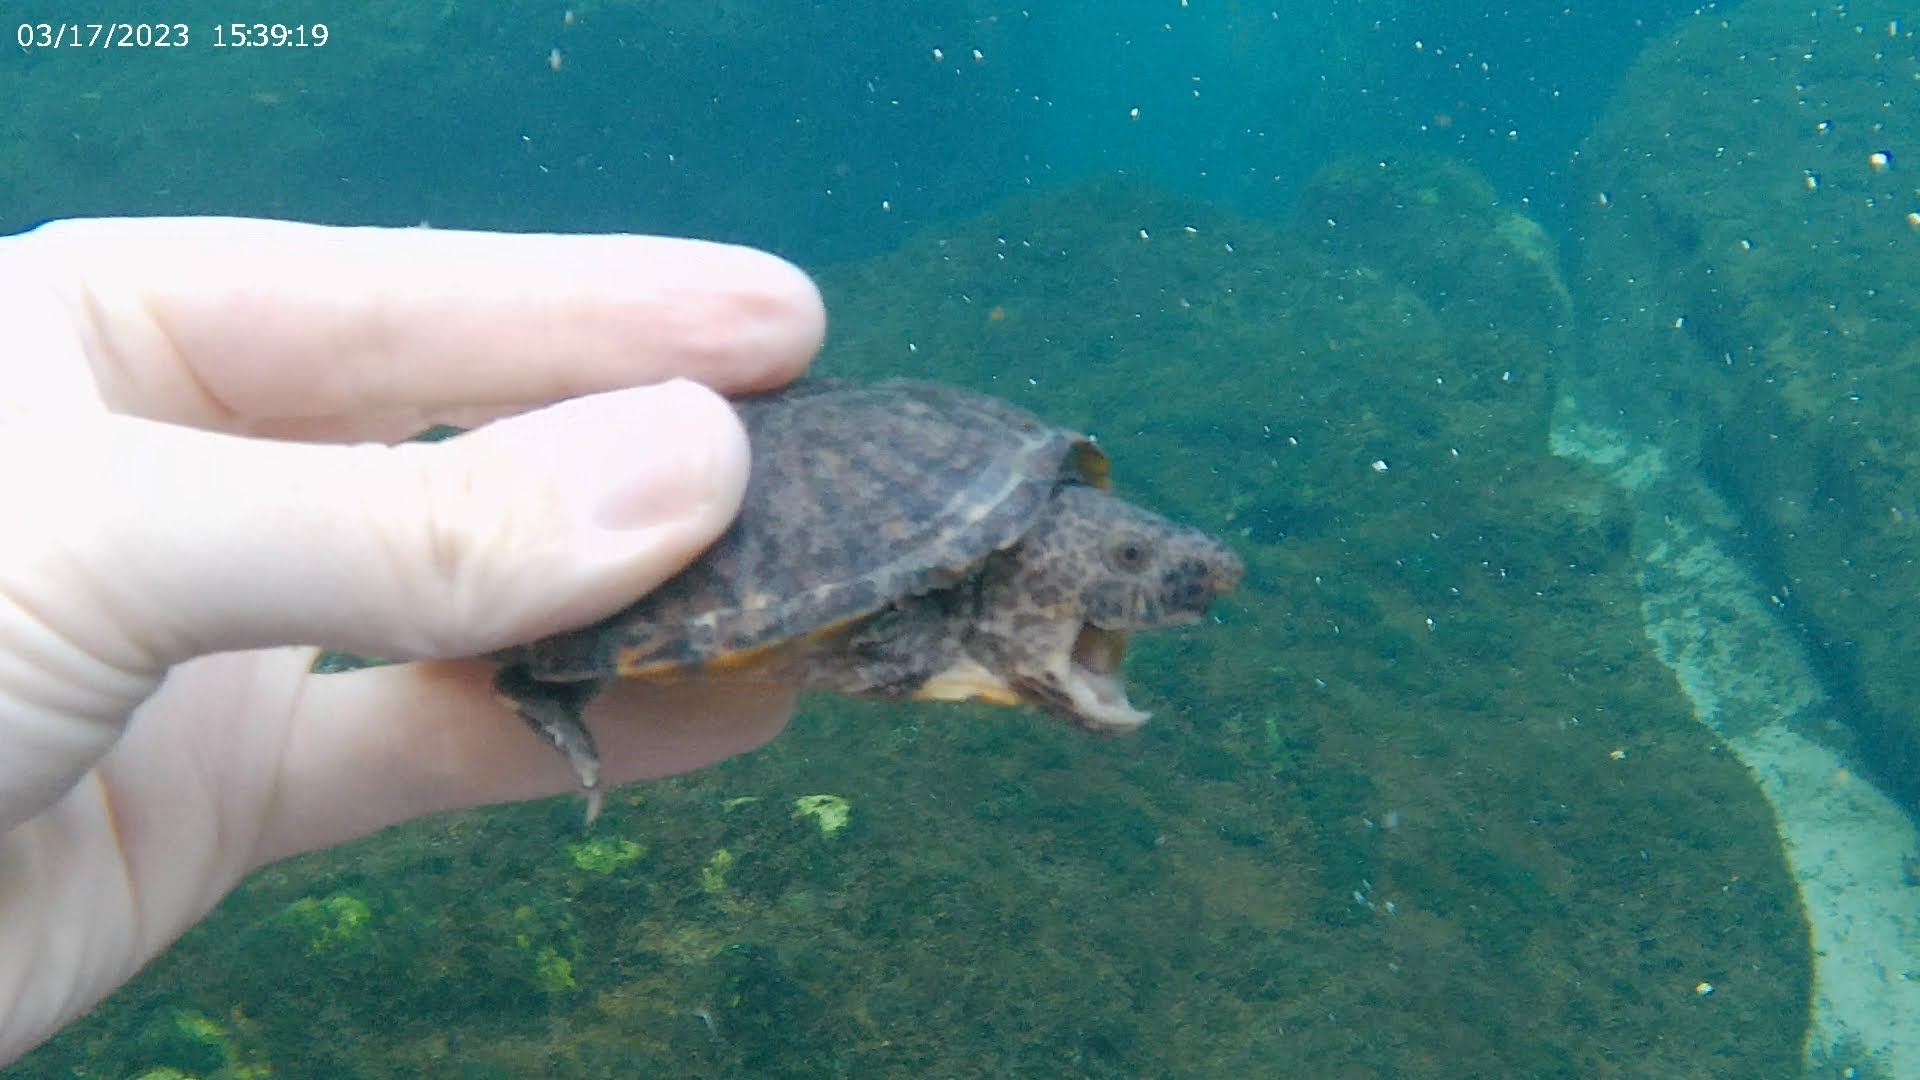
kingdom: Animalia
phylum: Chordata
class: Testudines
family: Kinosternidae
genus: Sternotherus
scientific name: Sternotherus minor
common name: Loggerhead musk turtle
